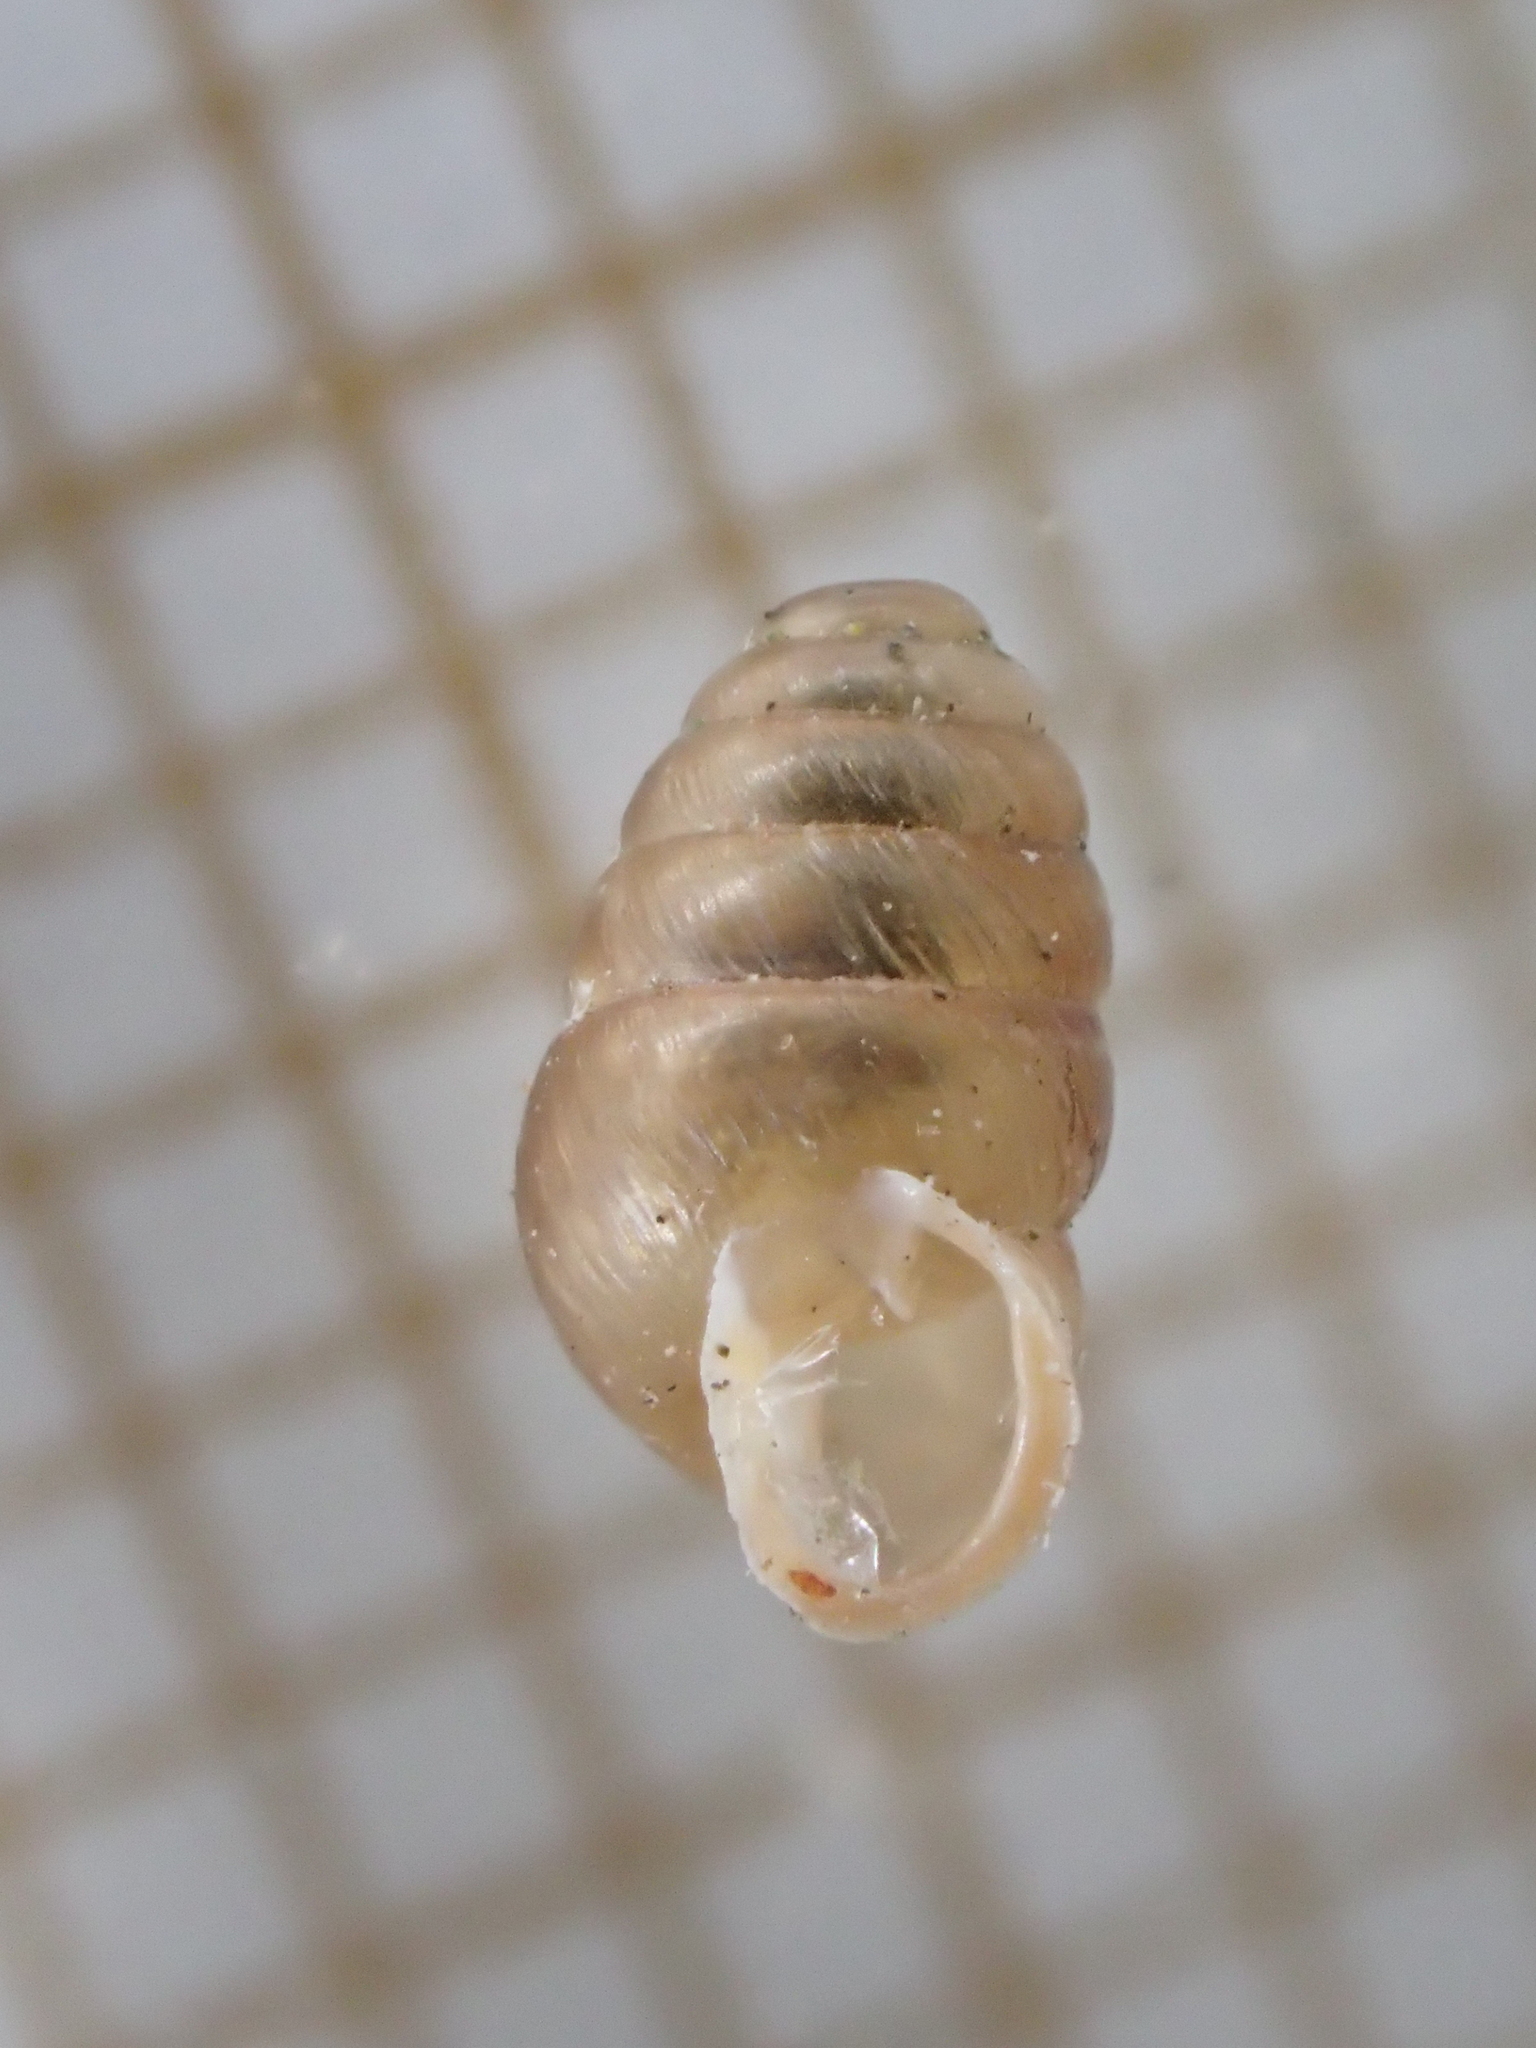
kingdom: Animalia
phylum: Mollusca
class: Gastropoda
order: Stylommatophora
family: Lauriidae
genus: Lauria
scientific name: Lauria cylindracea
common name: Common chrysalis snail
